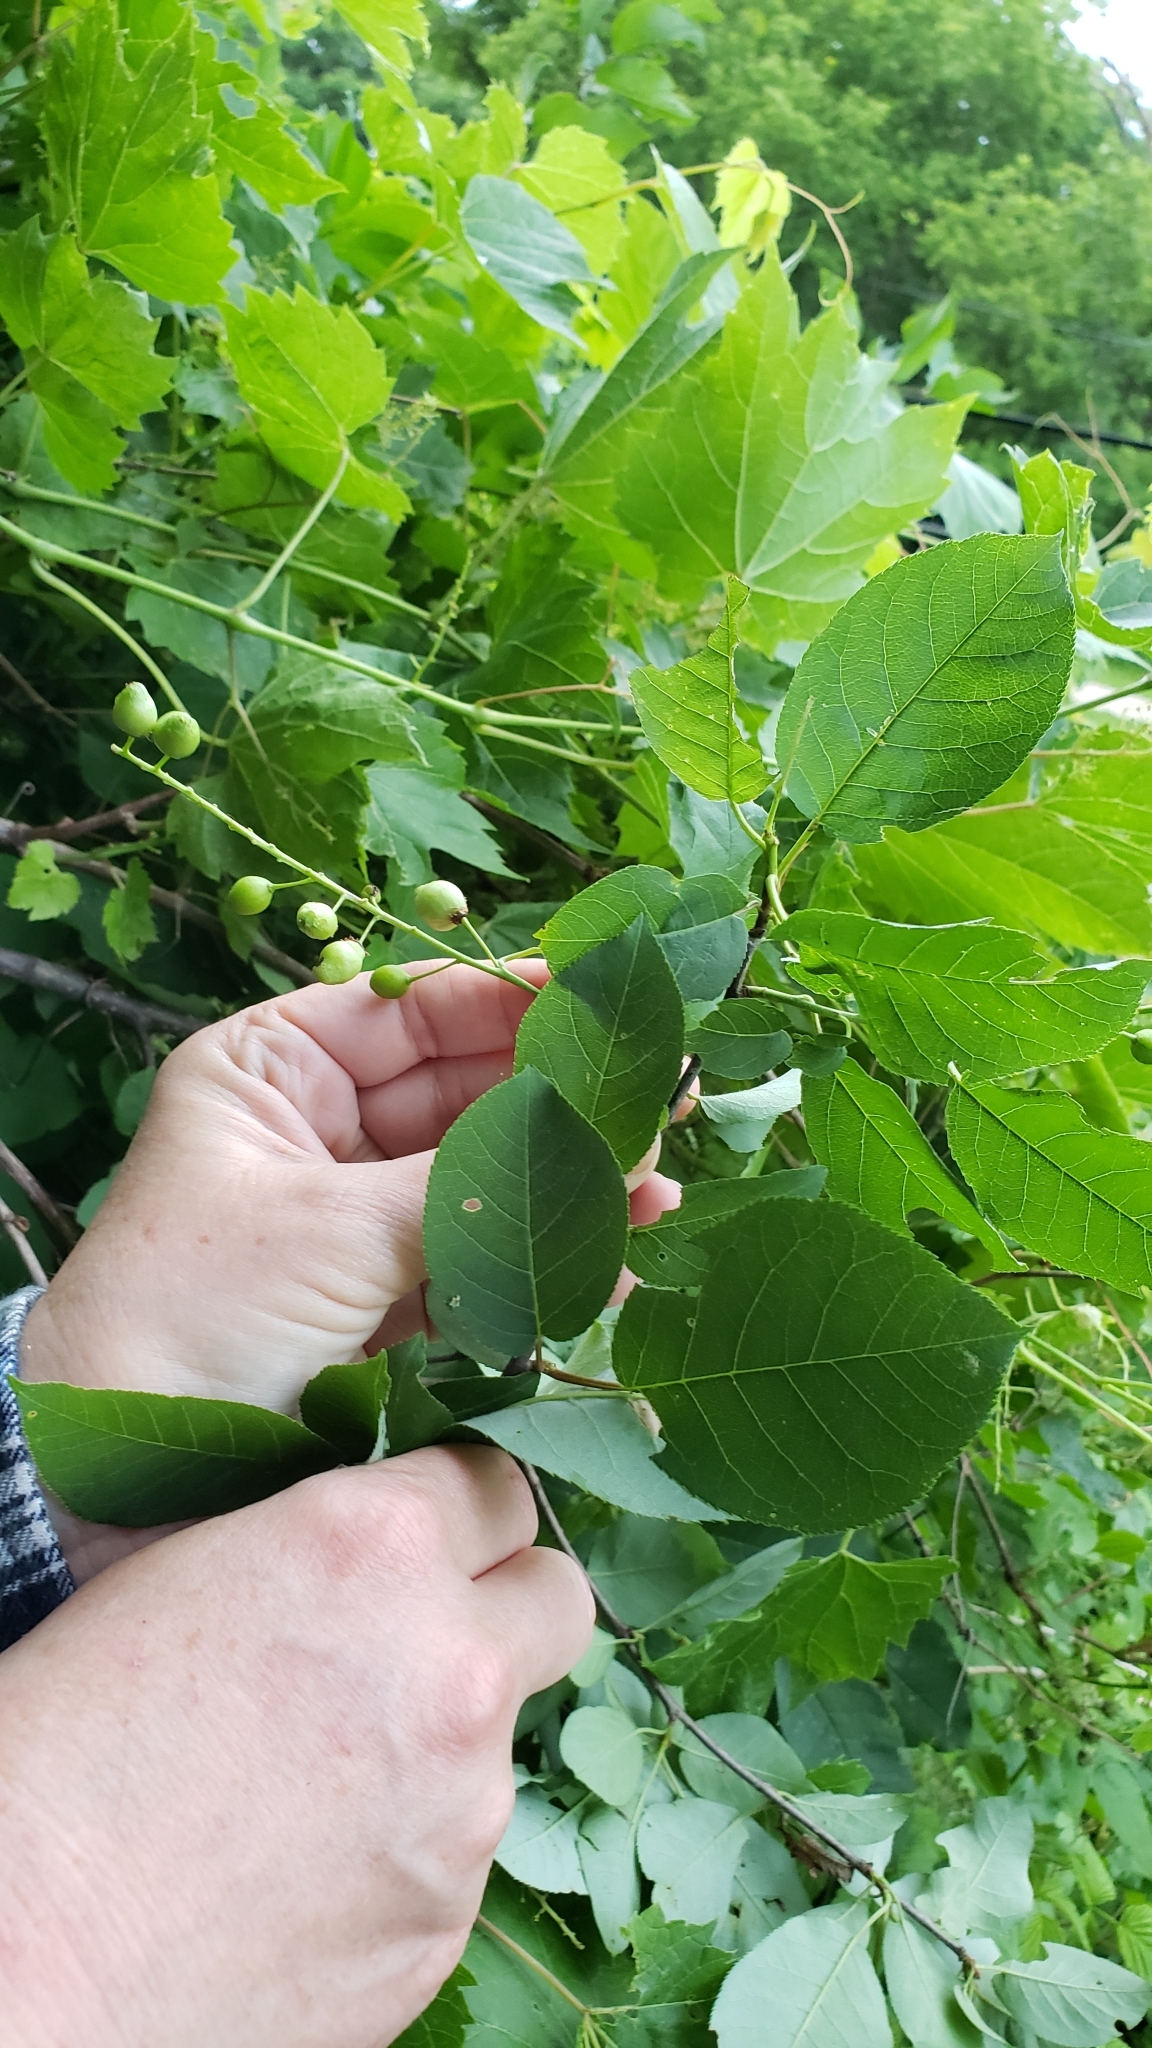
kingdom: Plantae
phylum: Tracheophyta
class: Magnoliopsida
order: Rosales
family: Rosaceae
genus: Prunus
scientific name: Prunus virginiana
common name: Chokecherry
